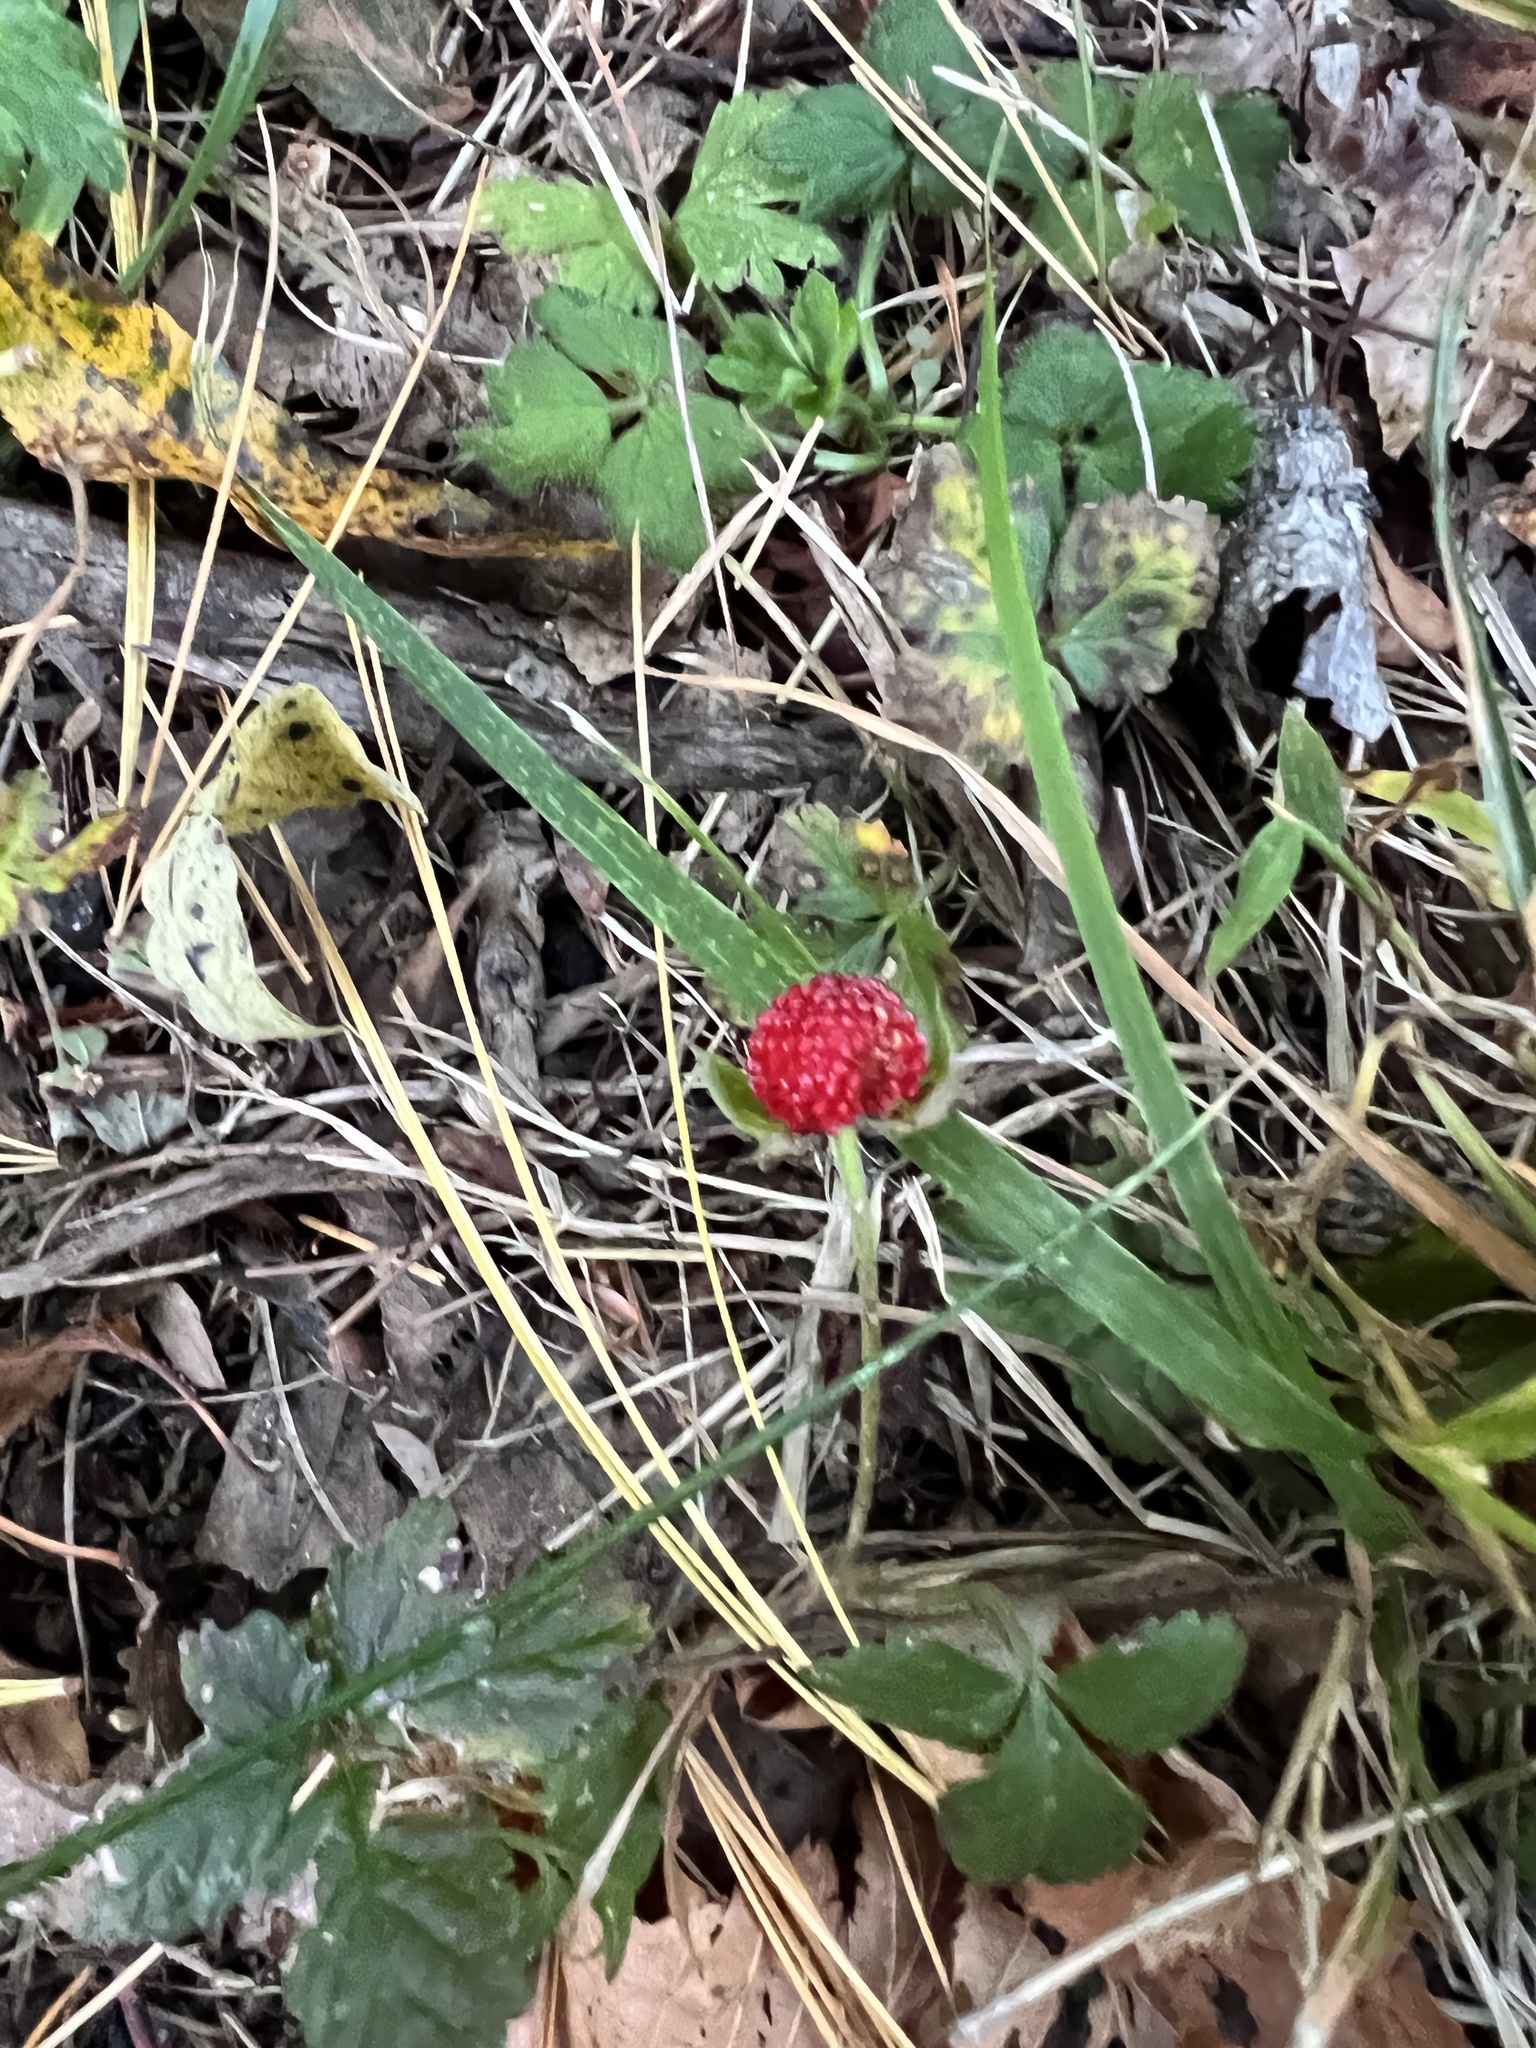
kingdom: Plantae
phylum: Tracheophyta
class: Magnoliopsida
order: Rosales
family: Rosaceae
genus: Potentilla
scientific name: Potentilla indica
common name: Yellow-flowered strawberry
